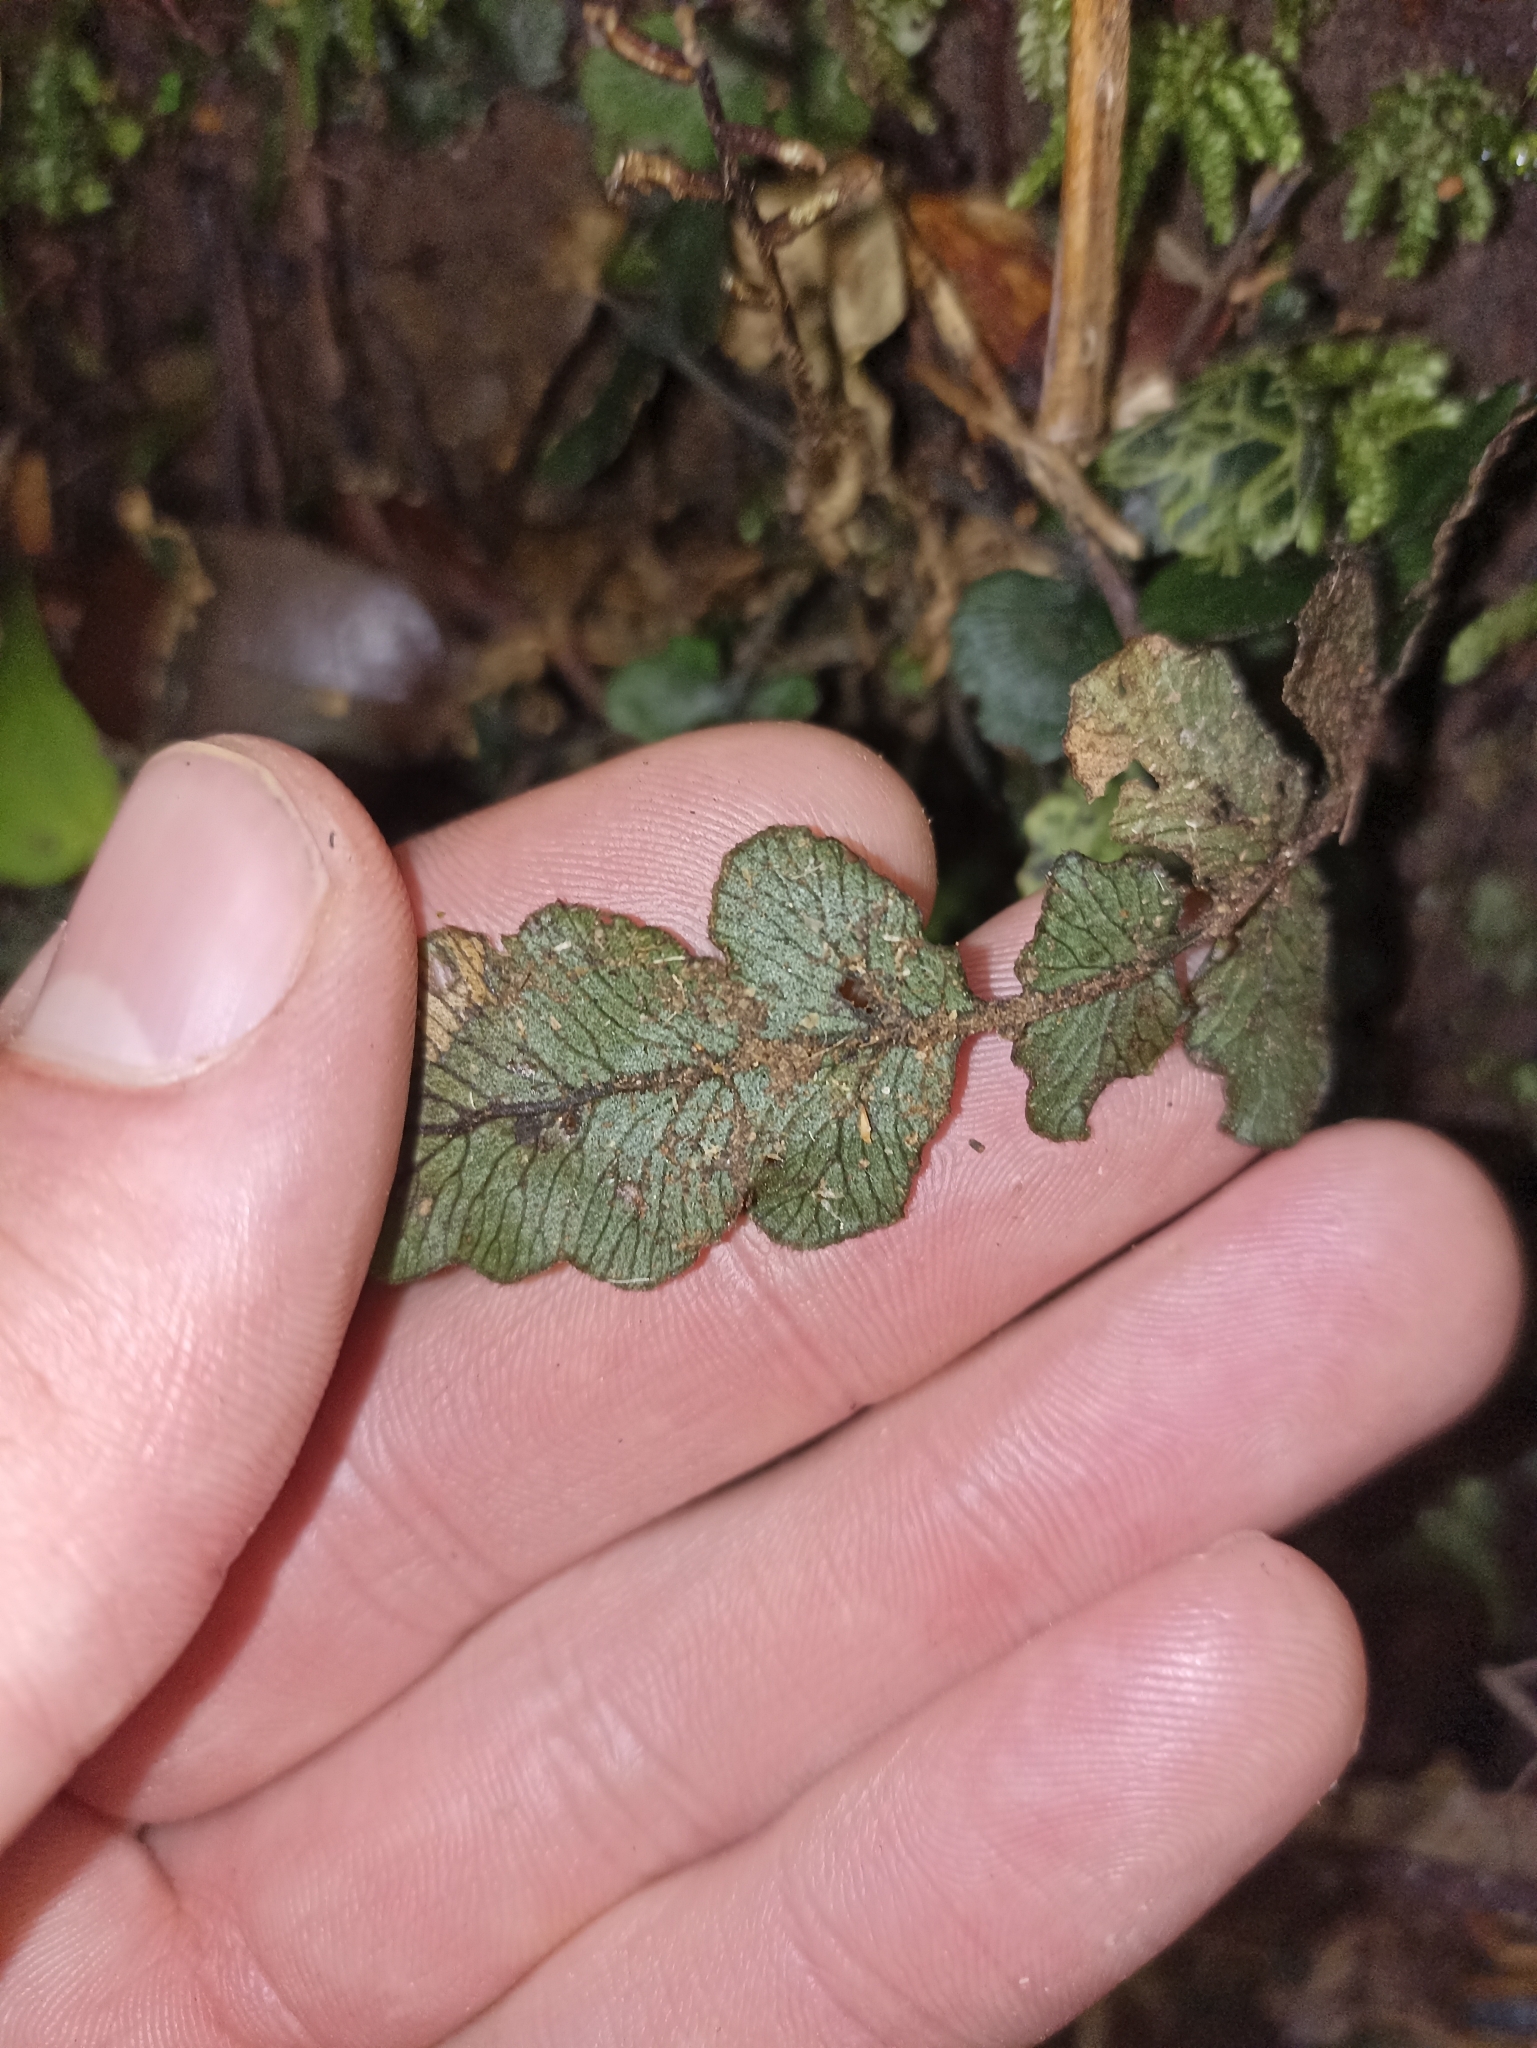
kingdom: Plantae
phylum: Tracheophyta
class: Polypodiopsida
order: Polypodiales
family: Blechnaceae
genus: Cranfillia
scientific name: Cranfillia nigra
